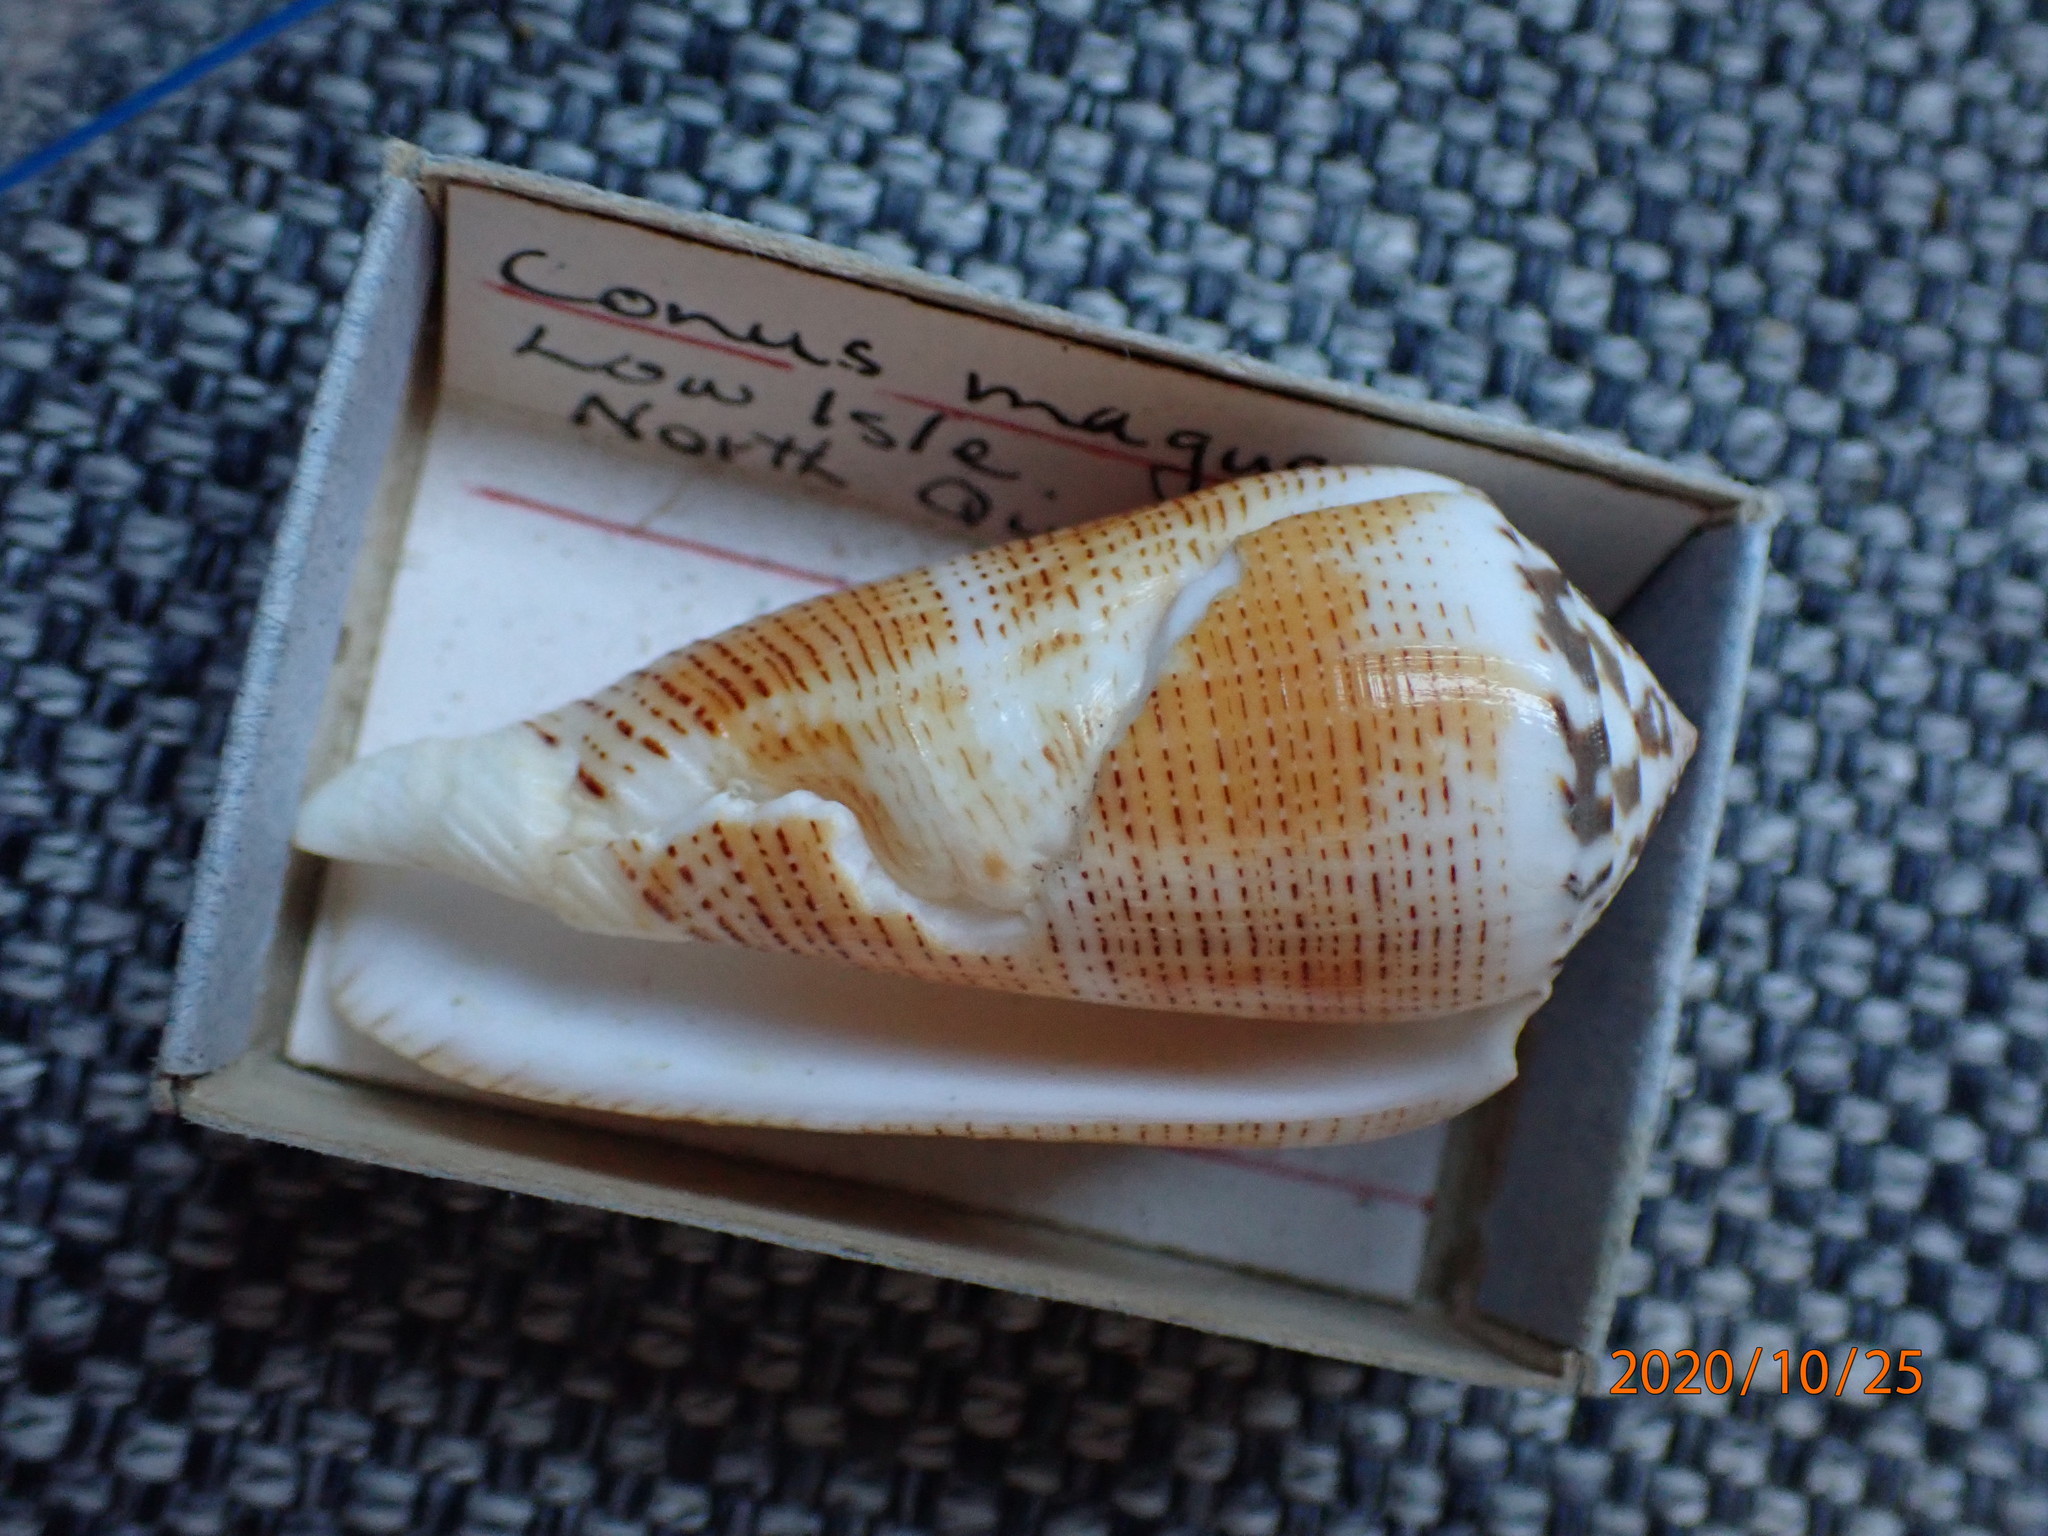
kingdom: Animalia
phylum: Mollusca
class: Gastropoda
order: Neogastropoda
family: Conidae
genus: Conus
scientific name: Conus magus
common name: Magical cone
